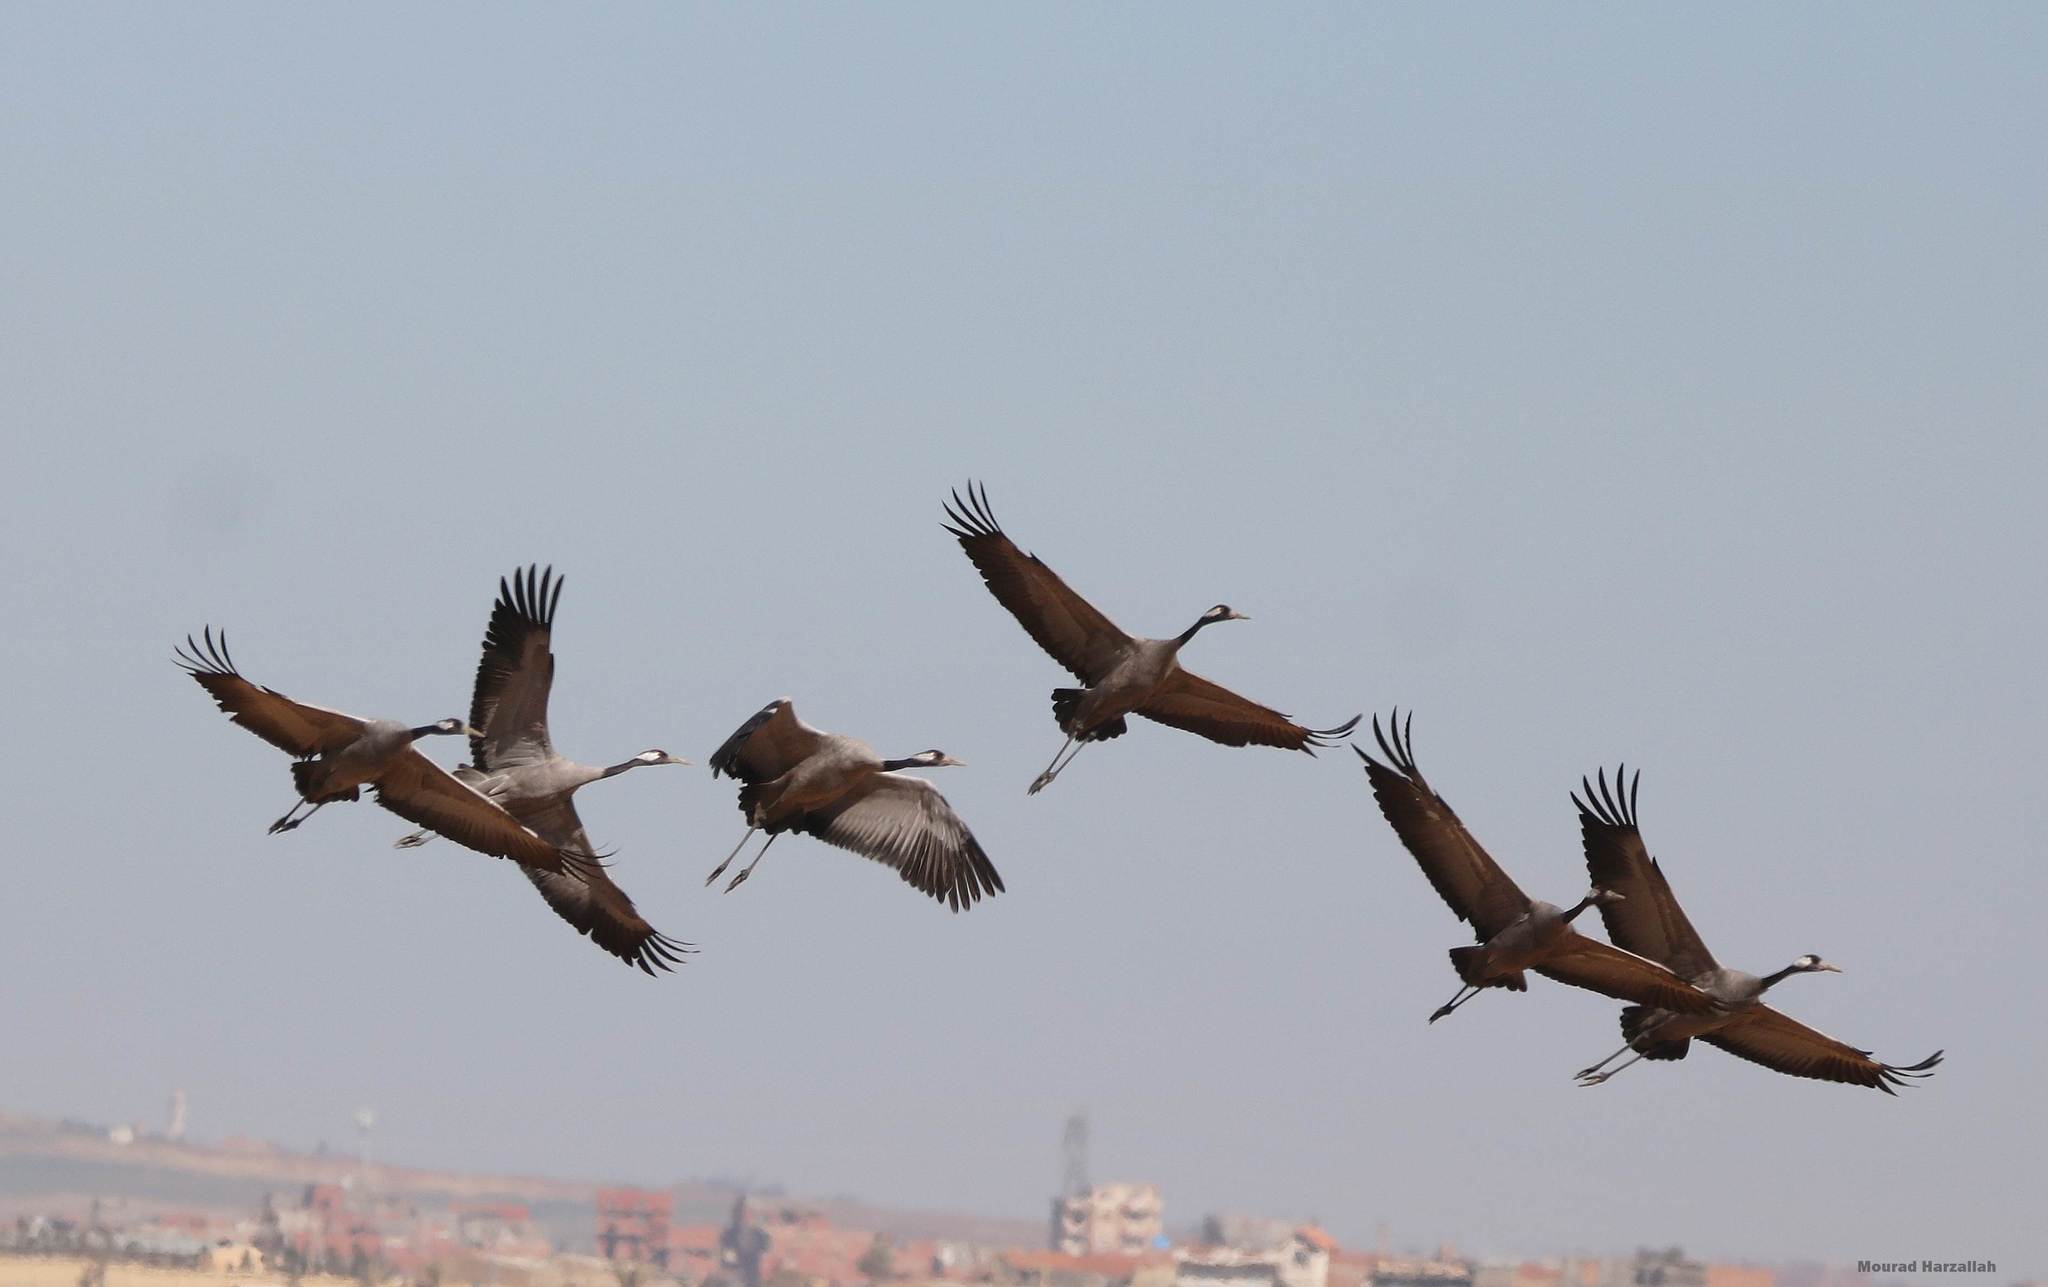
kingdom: Animalia
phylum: Chordata
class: Aves
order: Gruiformes
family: Gruidae
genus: Grus
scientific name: Grus grus
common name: Common crane
